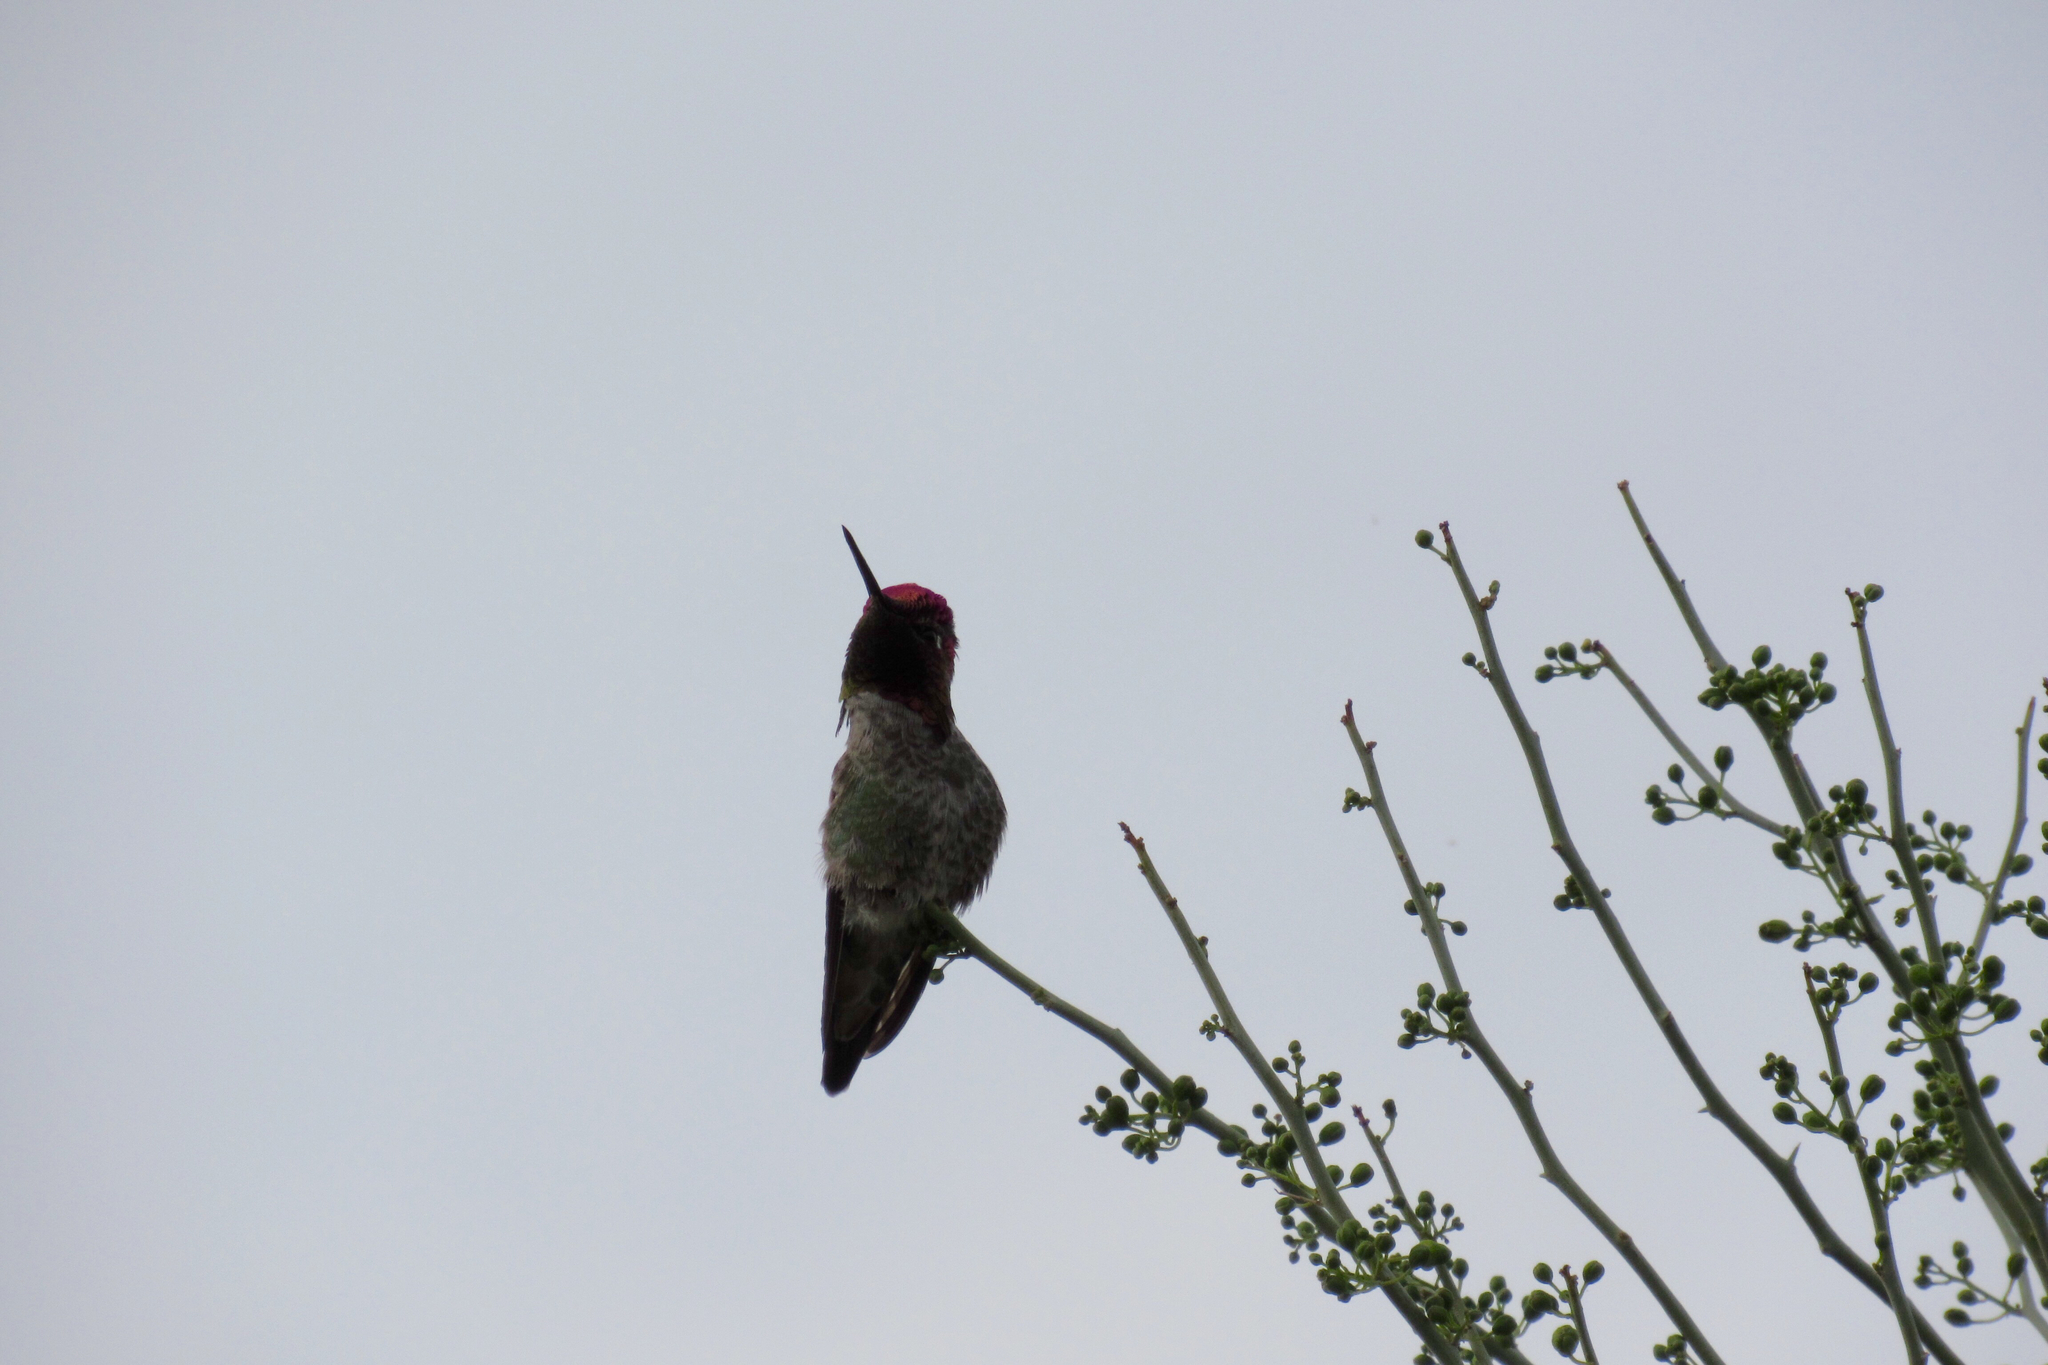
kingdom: Animalia
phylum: Chordata
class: Aves
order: Apodiformes
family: Trochilidae
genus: Calypte
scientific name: Calypte anna
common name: Anna's hummingbird
